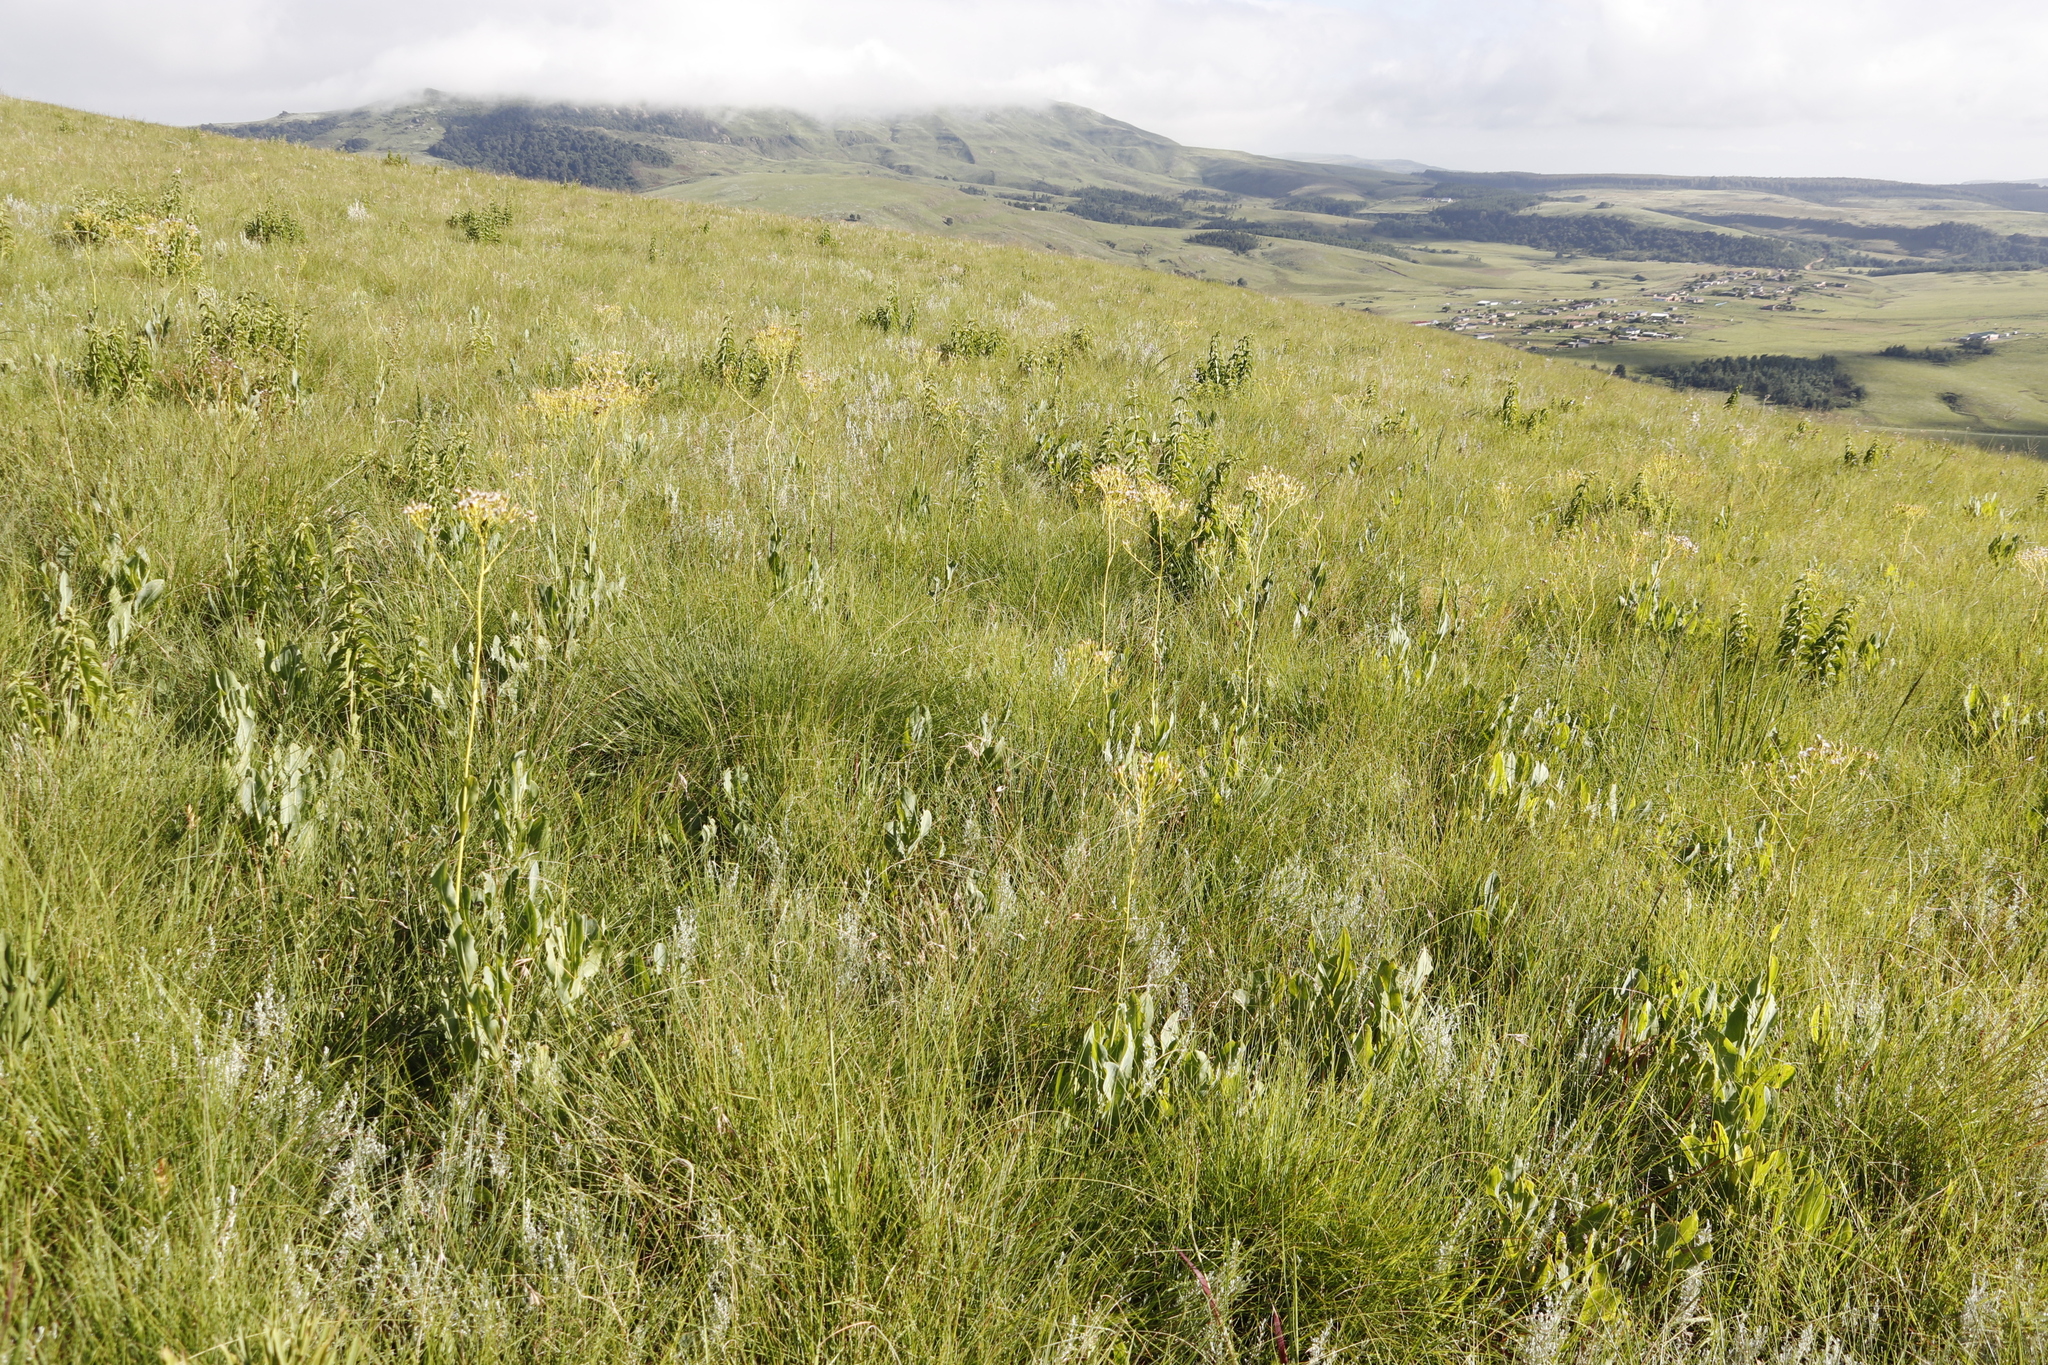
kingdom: Plantae
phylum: Tracheophyta
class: Magnoliopsida
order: Asterales
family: Asteraceae
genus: Senecio
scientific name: Senecio isatideus
